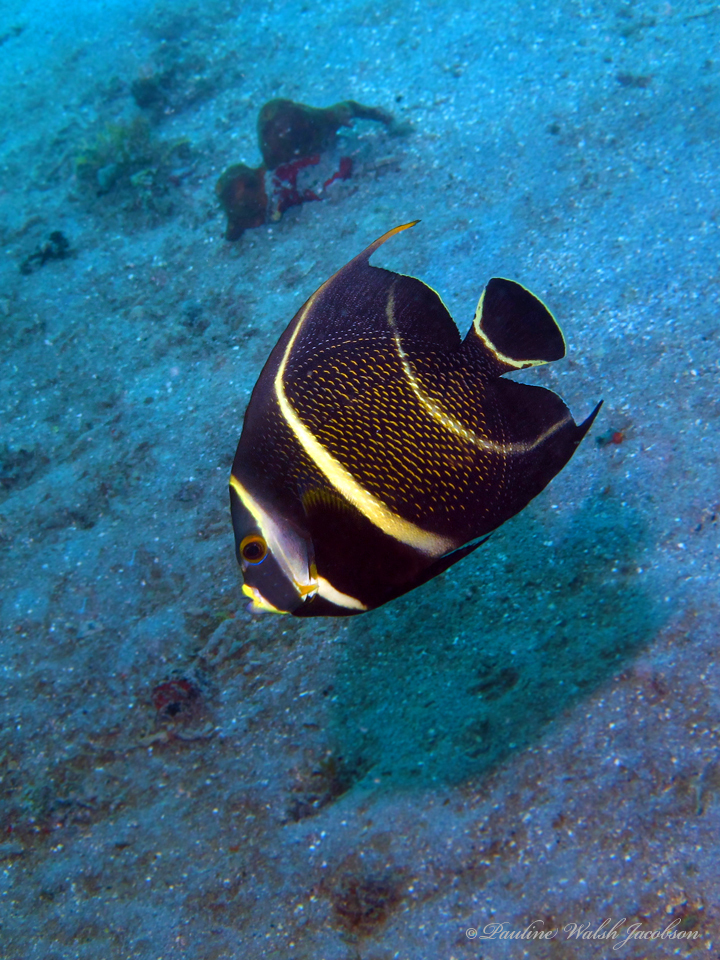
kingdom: Animalia
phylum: Chordata
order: Perciformes
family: Pomacanthidae
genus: Pomacanthus
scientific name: Pomacanthus paru
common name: French angelfish
